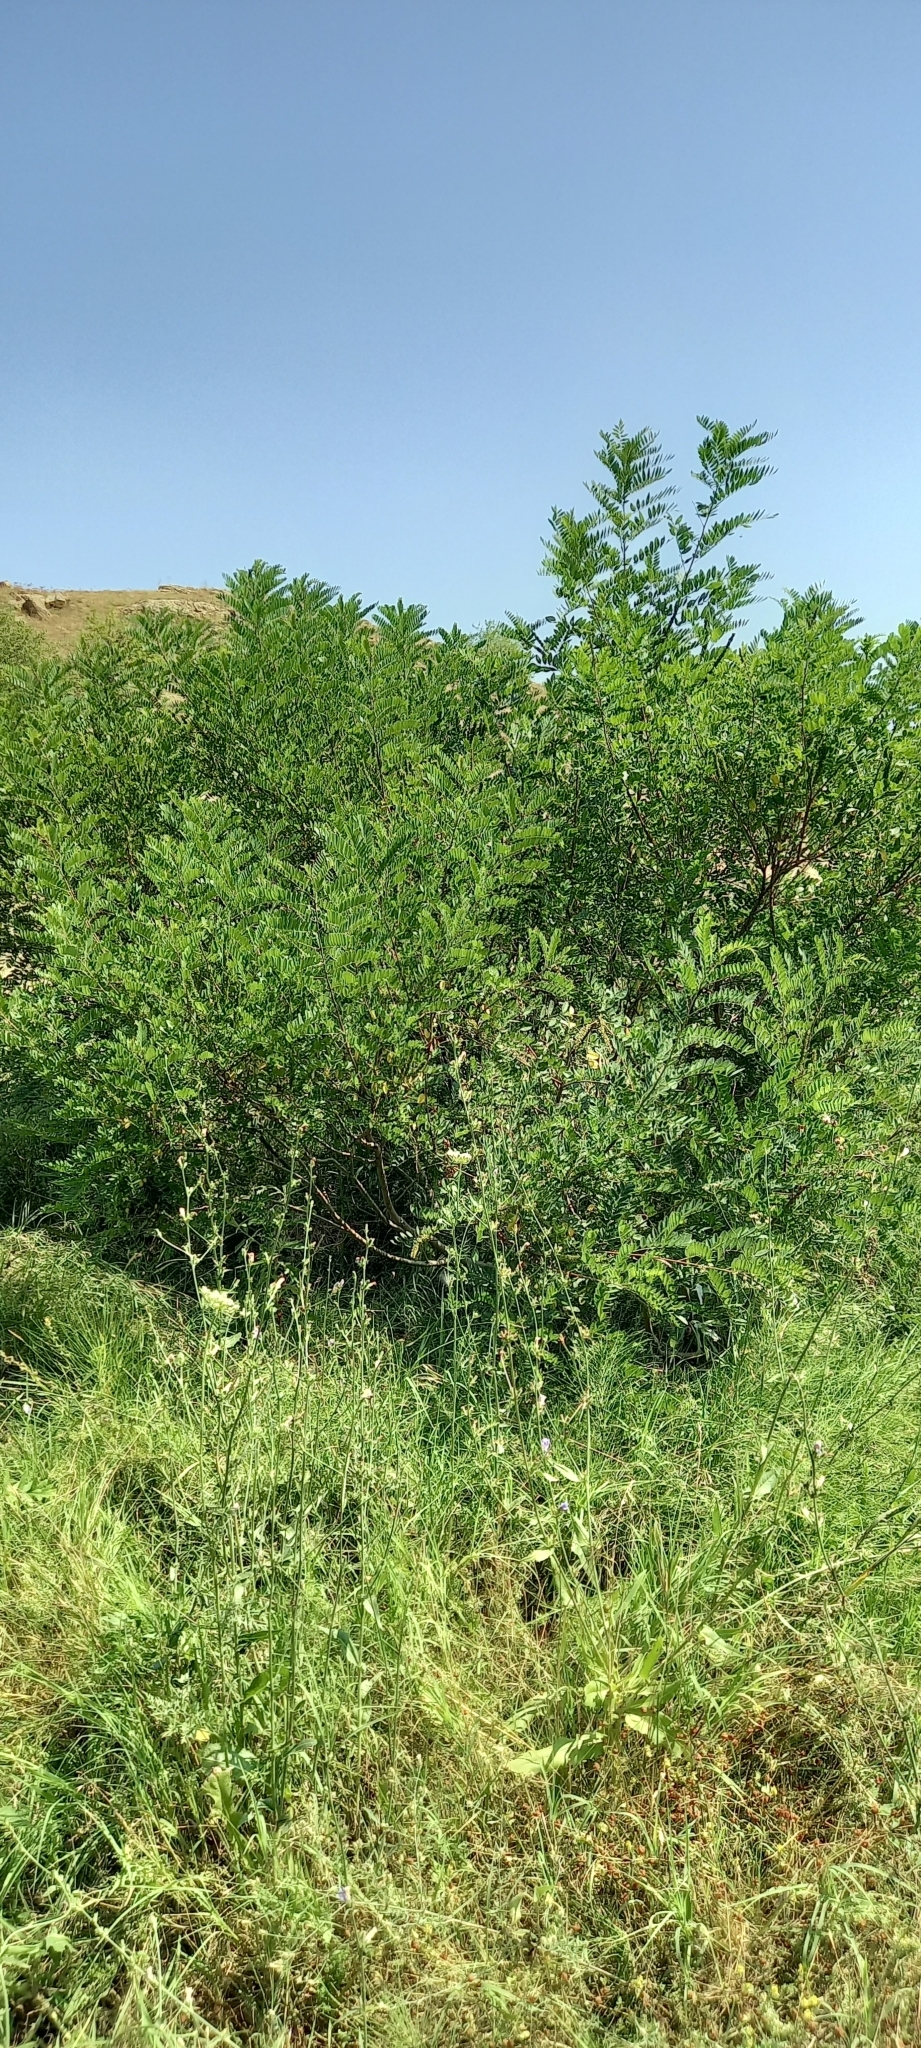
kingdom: Plantae
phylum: Tracheophyta
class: Magnoliopsida
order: Fabales
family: Fabaceae
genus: Amorpha
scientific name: Amorpha fruticosa
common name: False indigo
